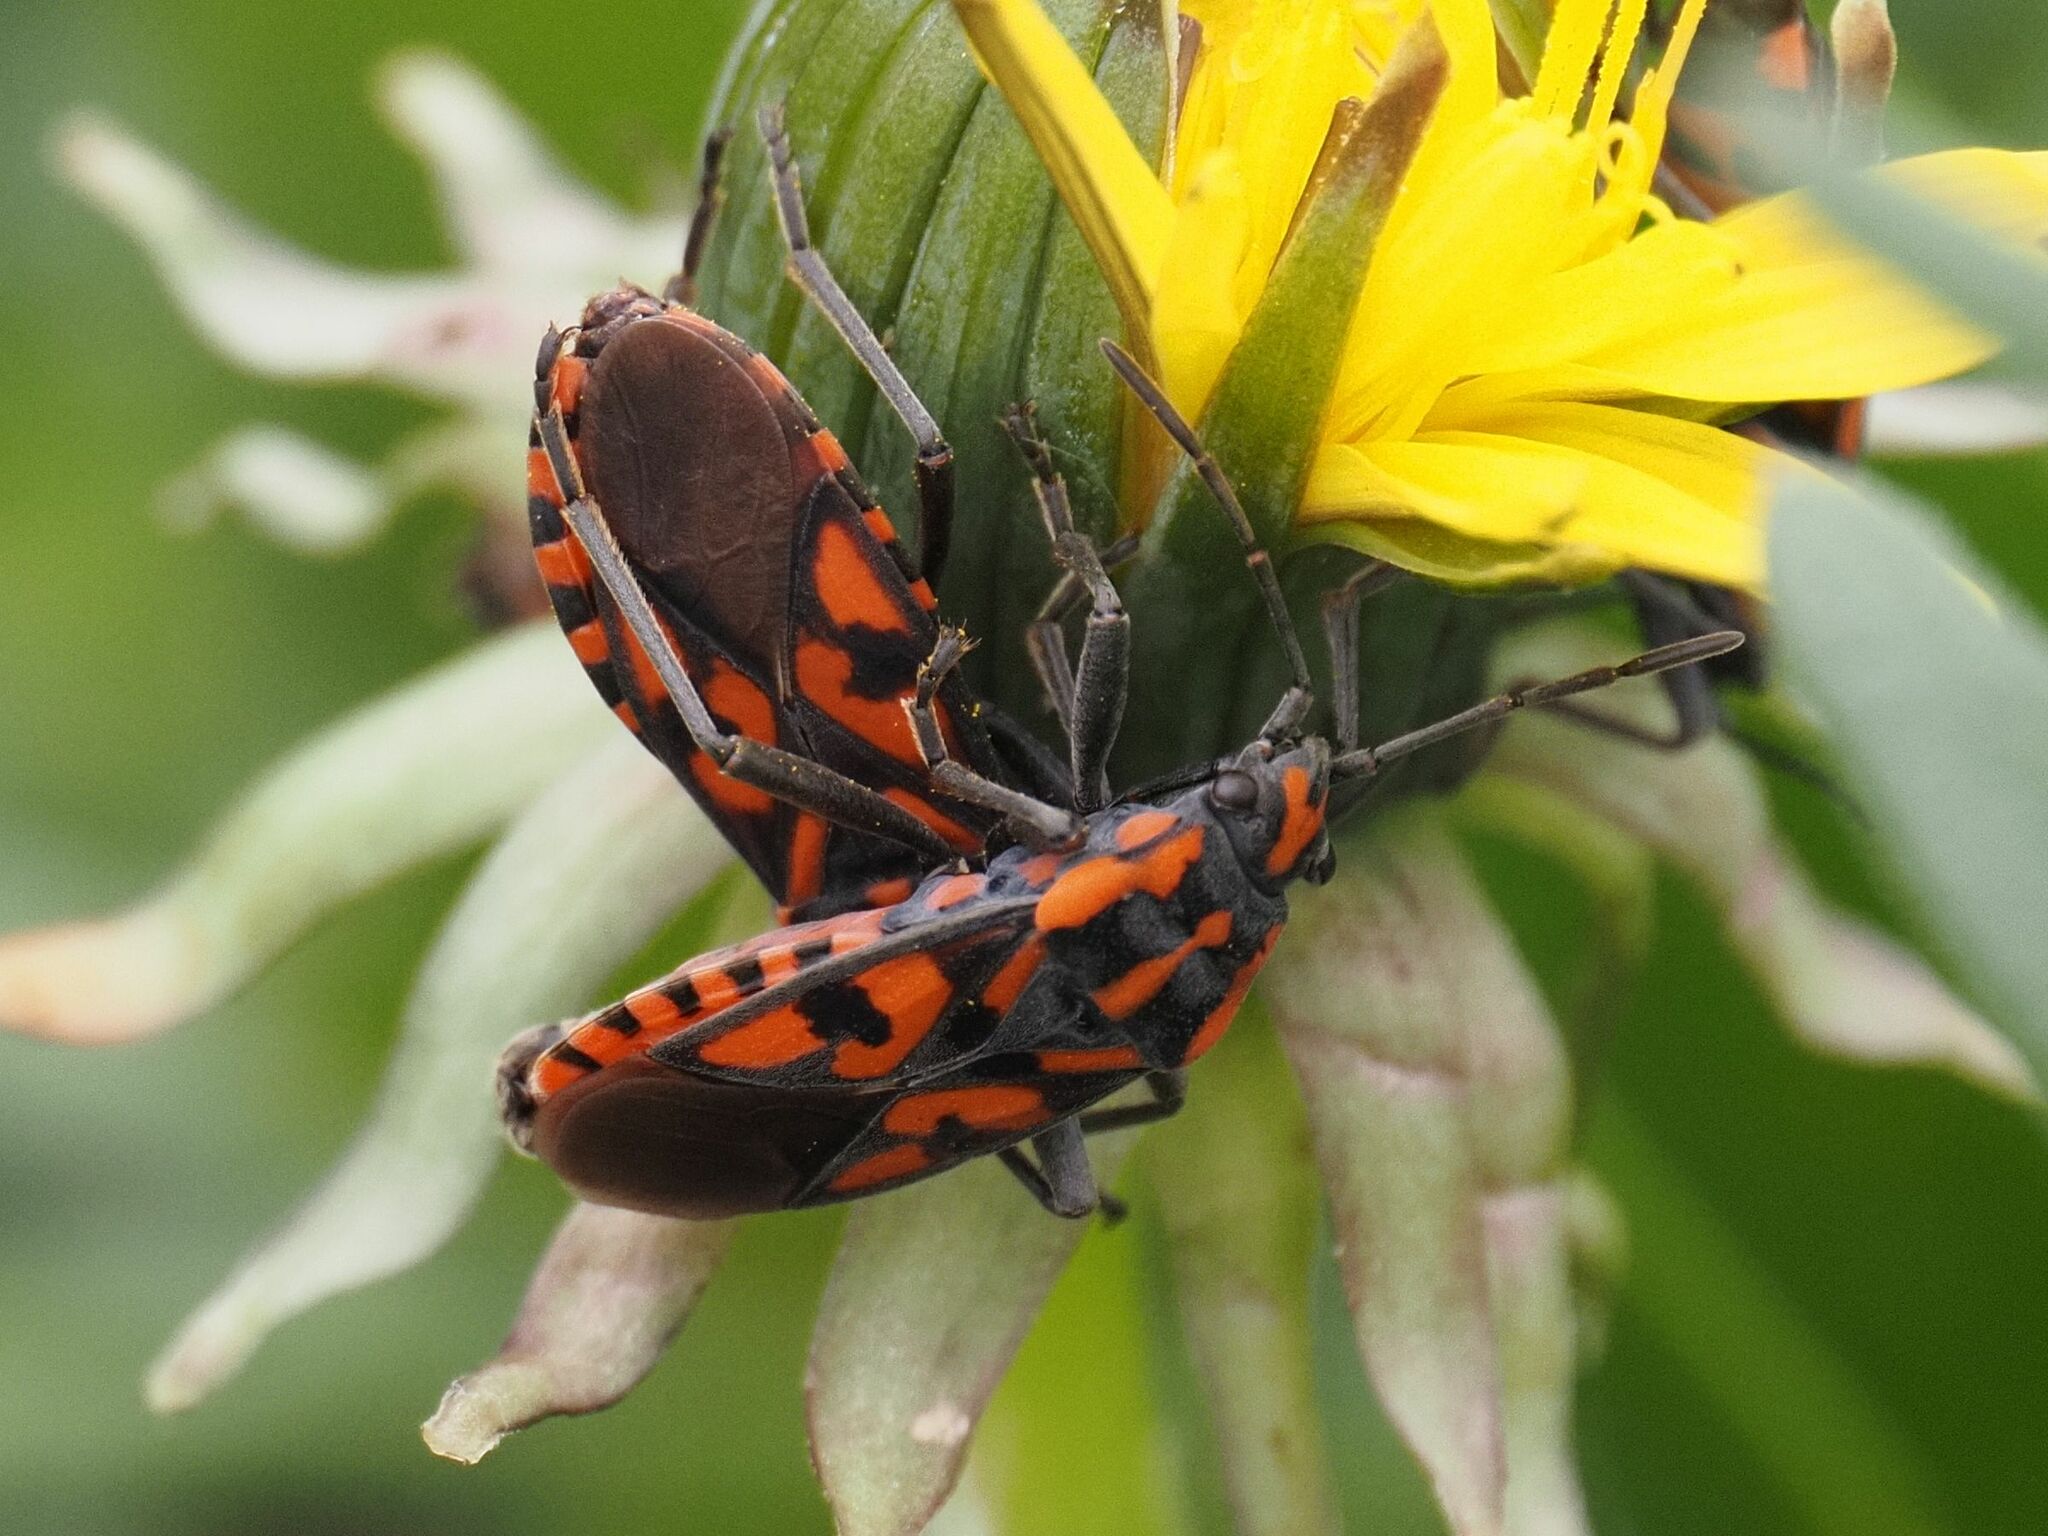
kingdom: Animalia
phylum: Arthropoda
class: Insecta
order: Hemiptera
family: Lygaeidae
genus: Spilostethus
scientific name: Spilostethus saxatilis
